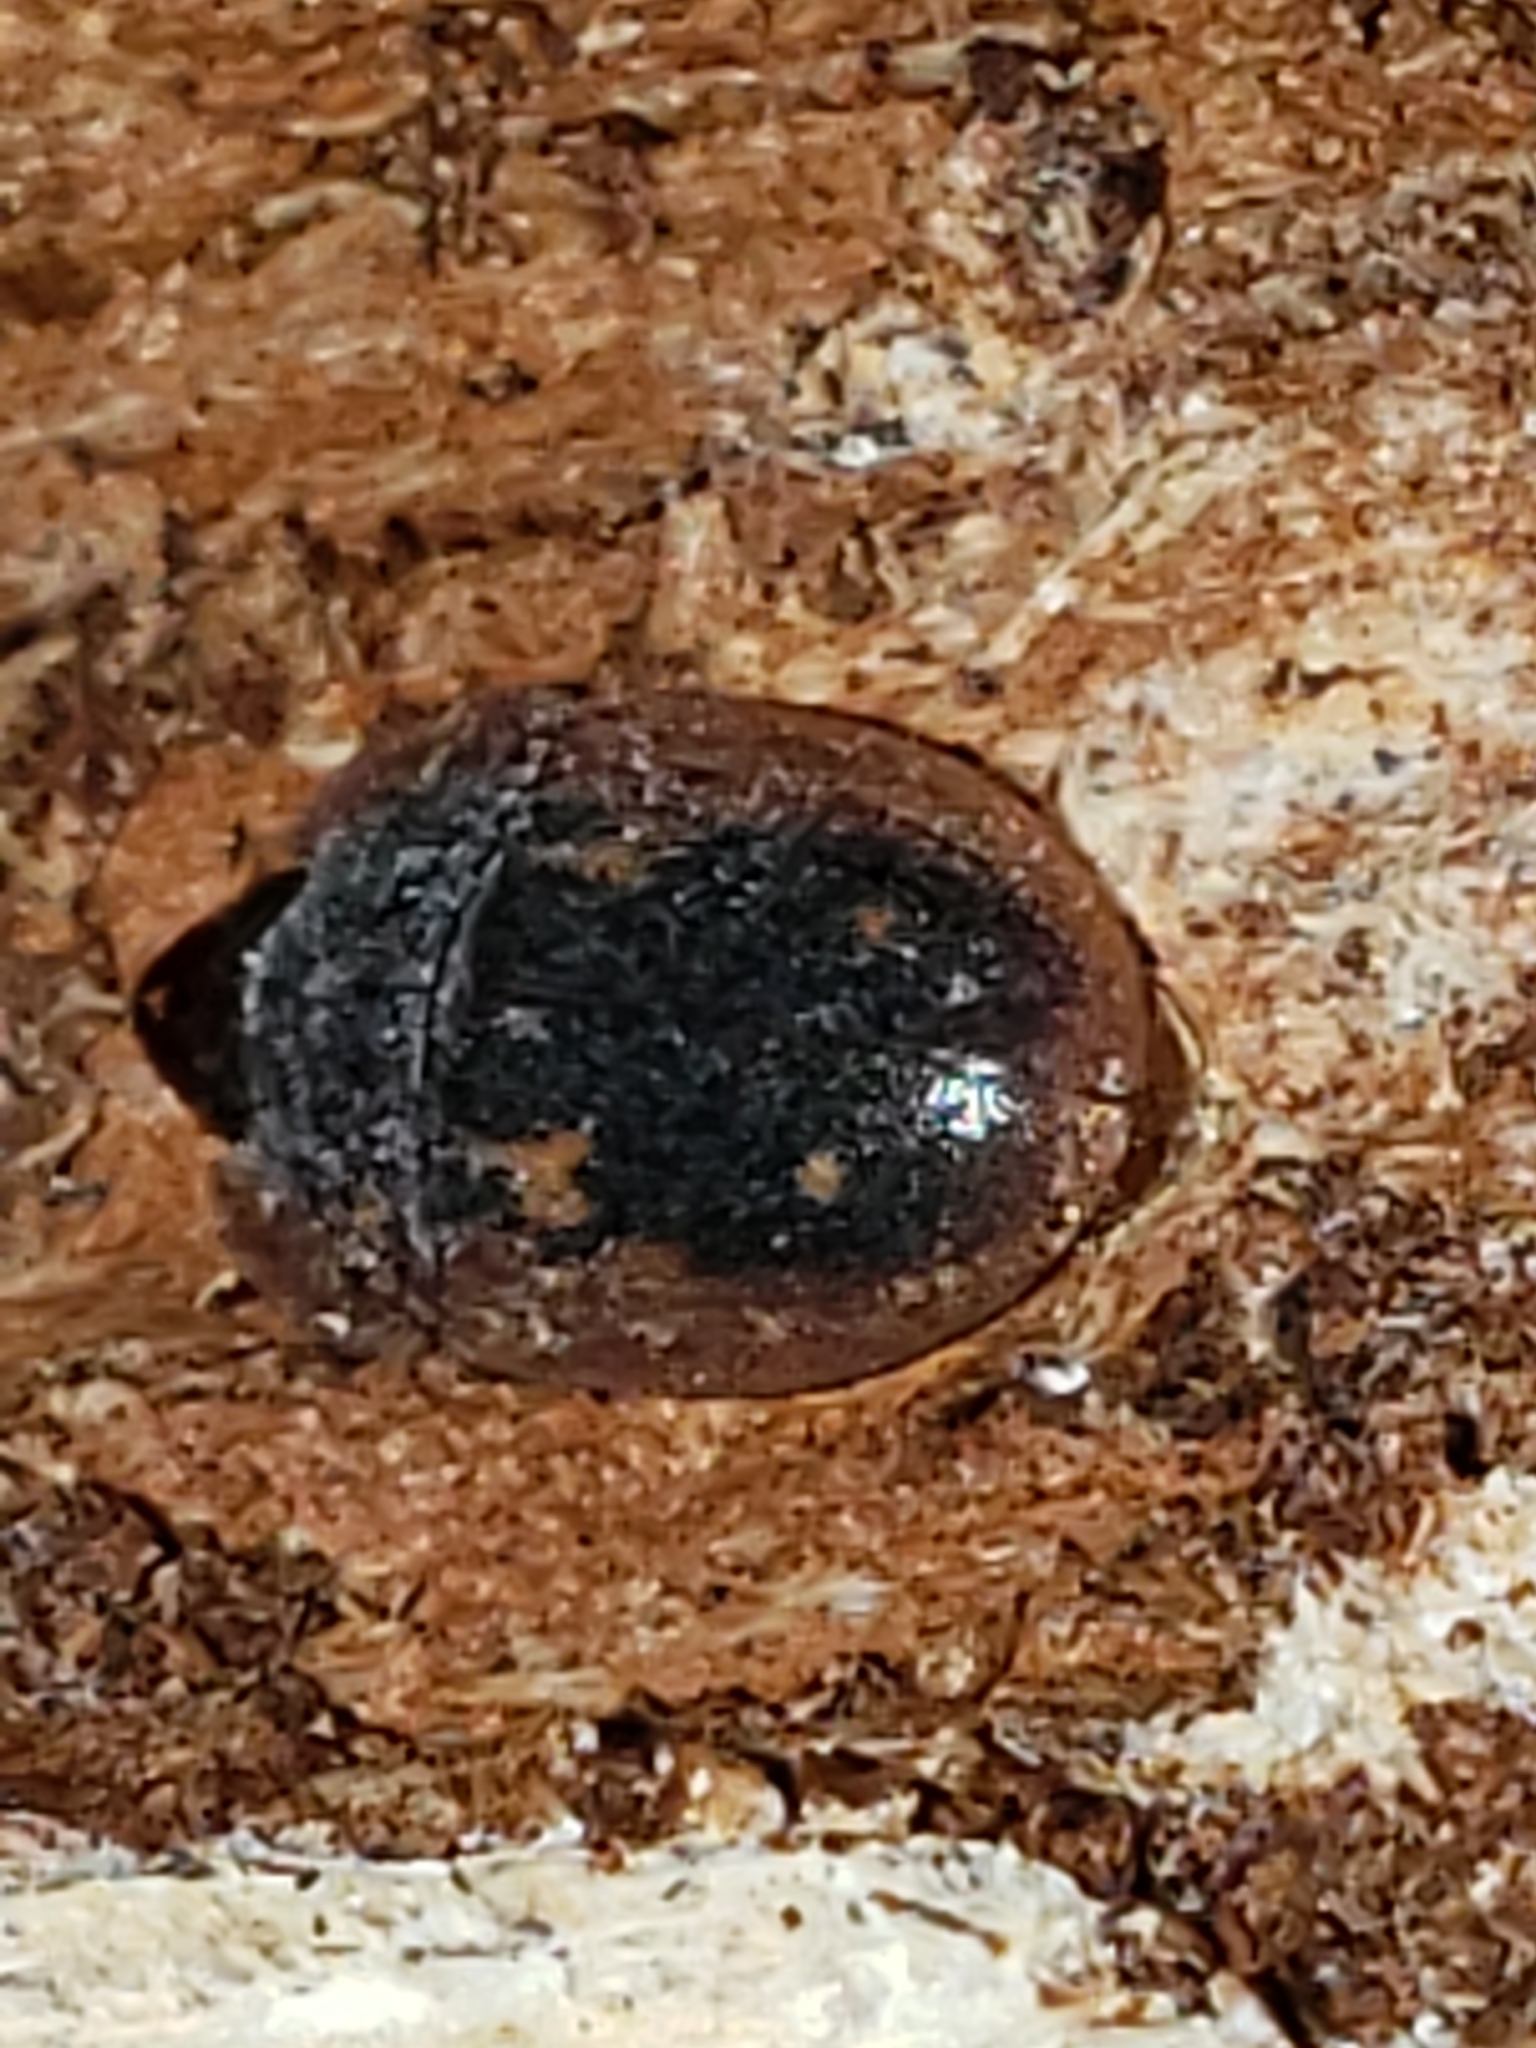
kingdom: Animalia
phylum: Arthropoda
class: Insecta
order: Coleoptera
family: Nitidulidae
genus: Prometopia
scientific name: Prometopia sexmaculata
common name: Six-spotted sap-feeding beetle
